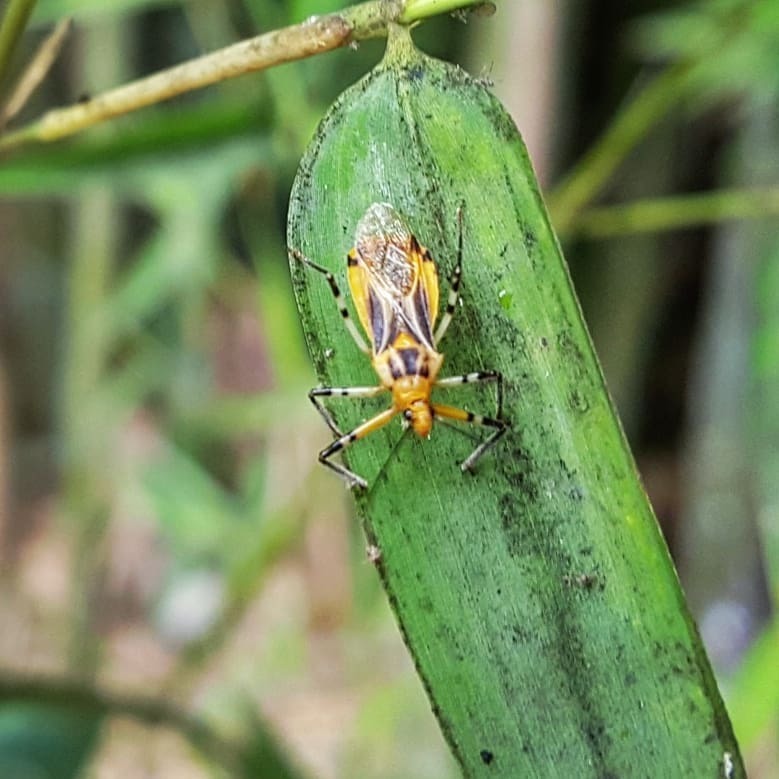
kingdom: Animalia
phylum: Arthropoda
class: Insecta
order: Hemiptera
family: Reduviidae
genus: Repipta
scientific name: Repipta nigronotata
